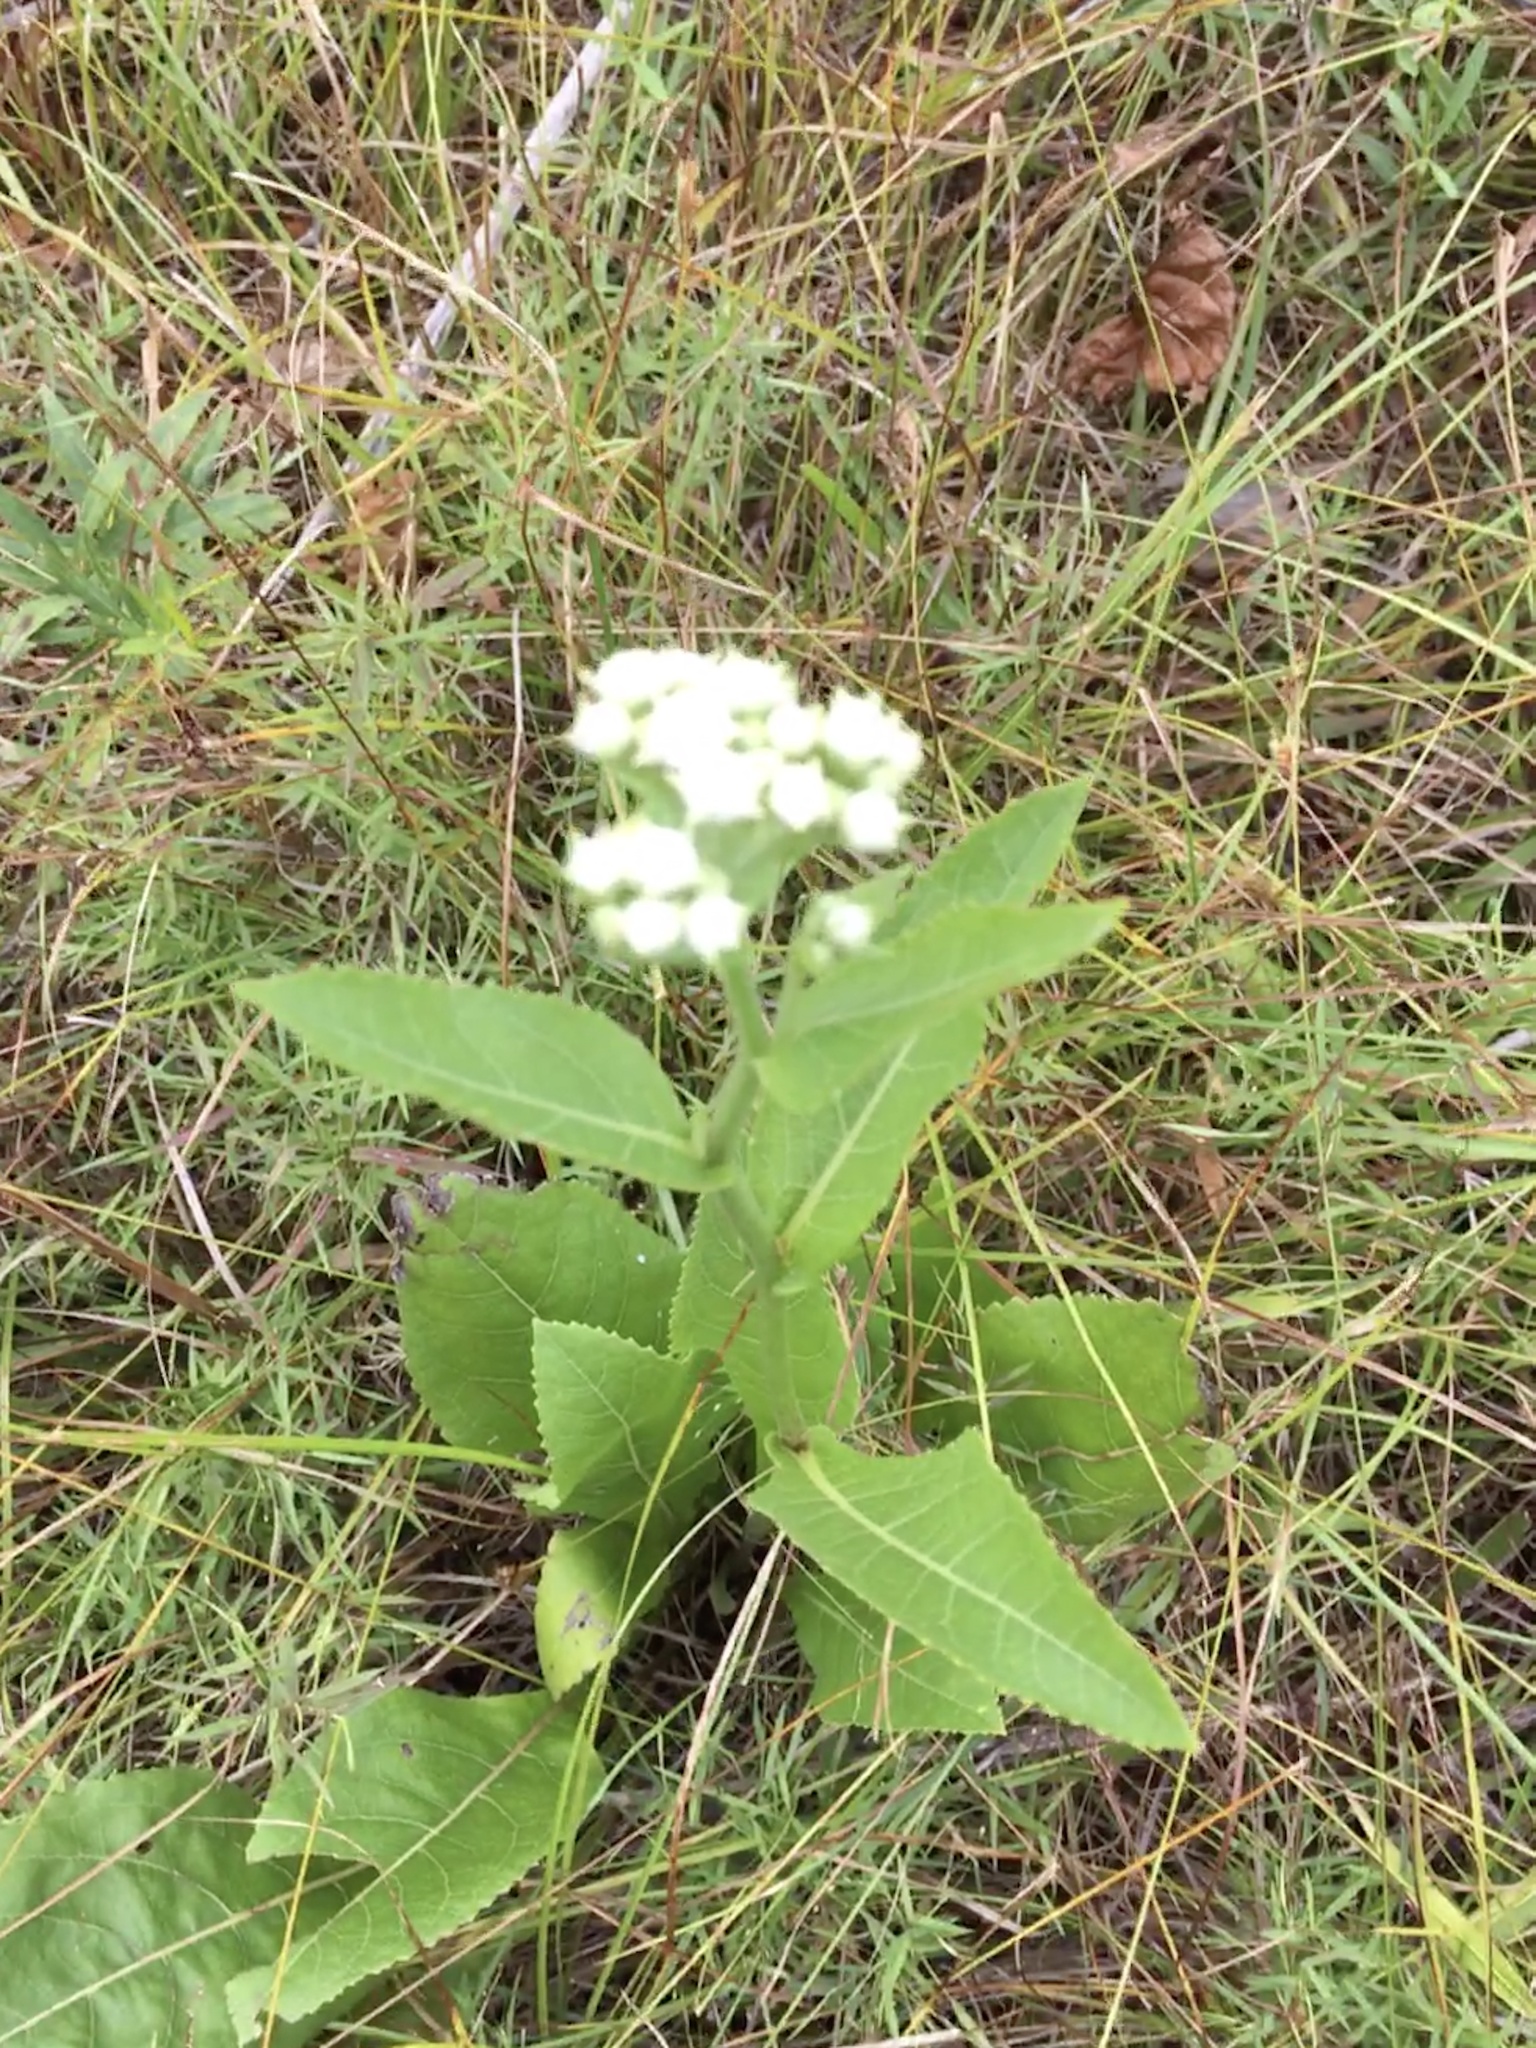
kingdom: Plantae
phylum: Tracheophyta
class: Magnoliopsida
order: Asterales
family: Asteraceae
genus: Parthenium
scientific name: Parthenium integrifolium
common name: American feverfew
